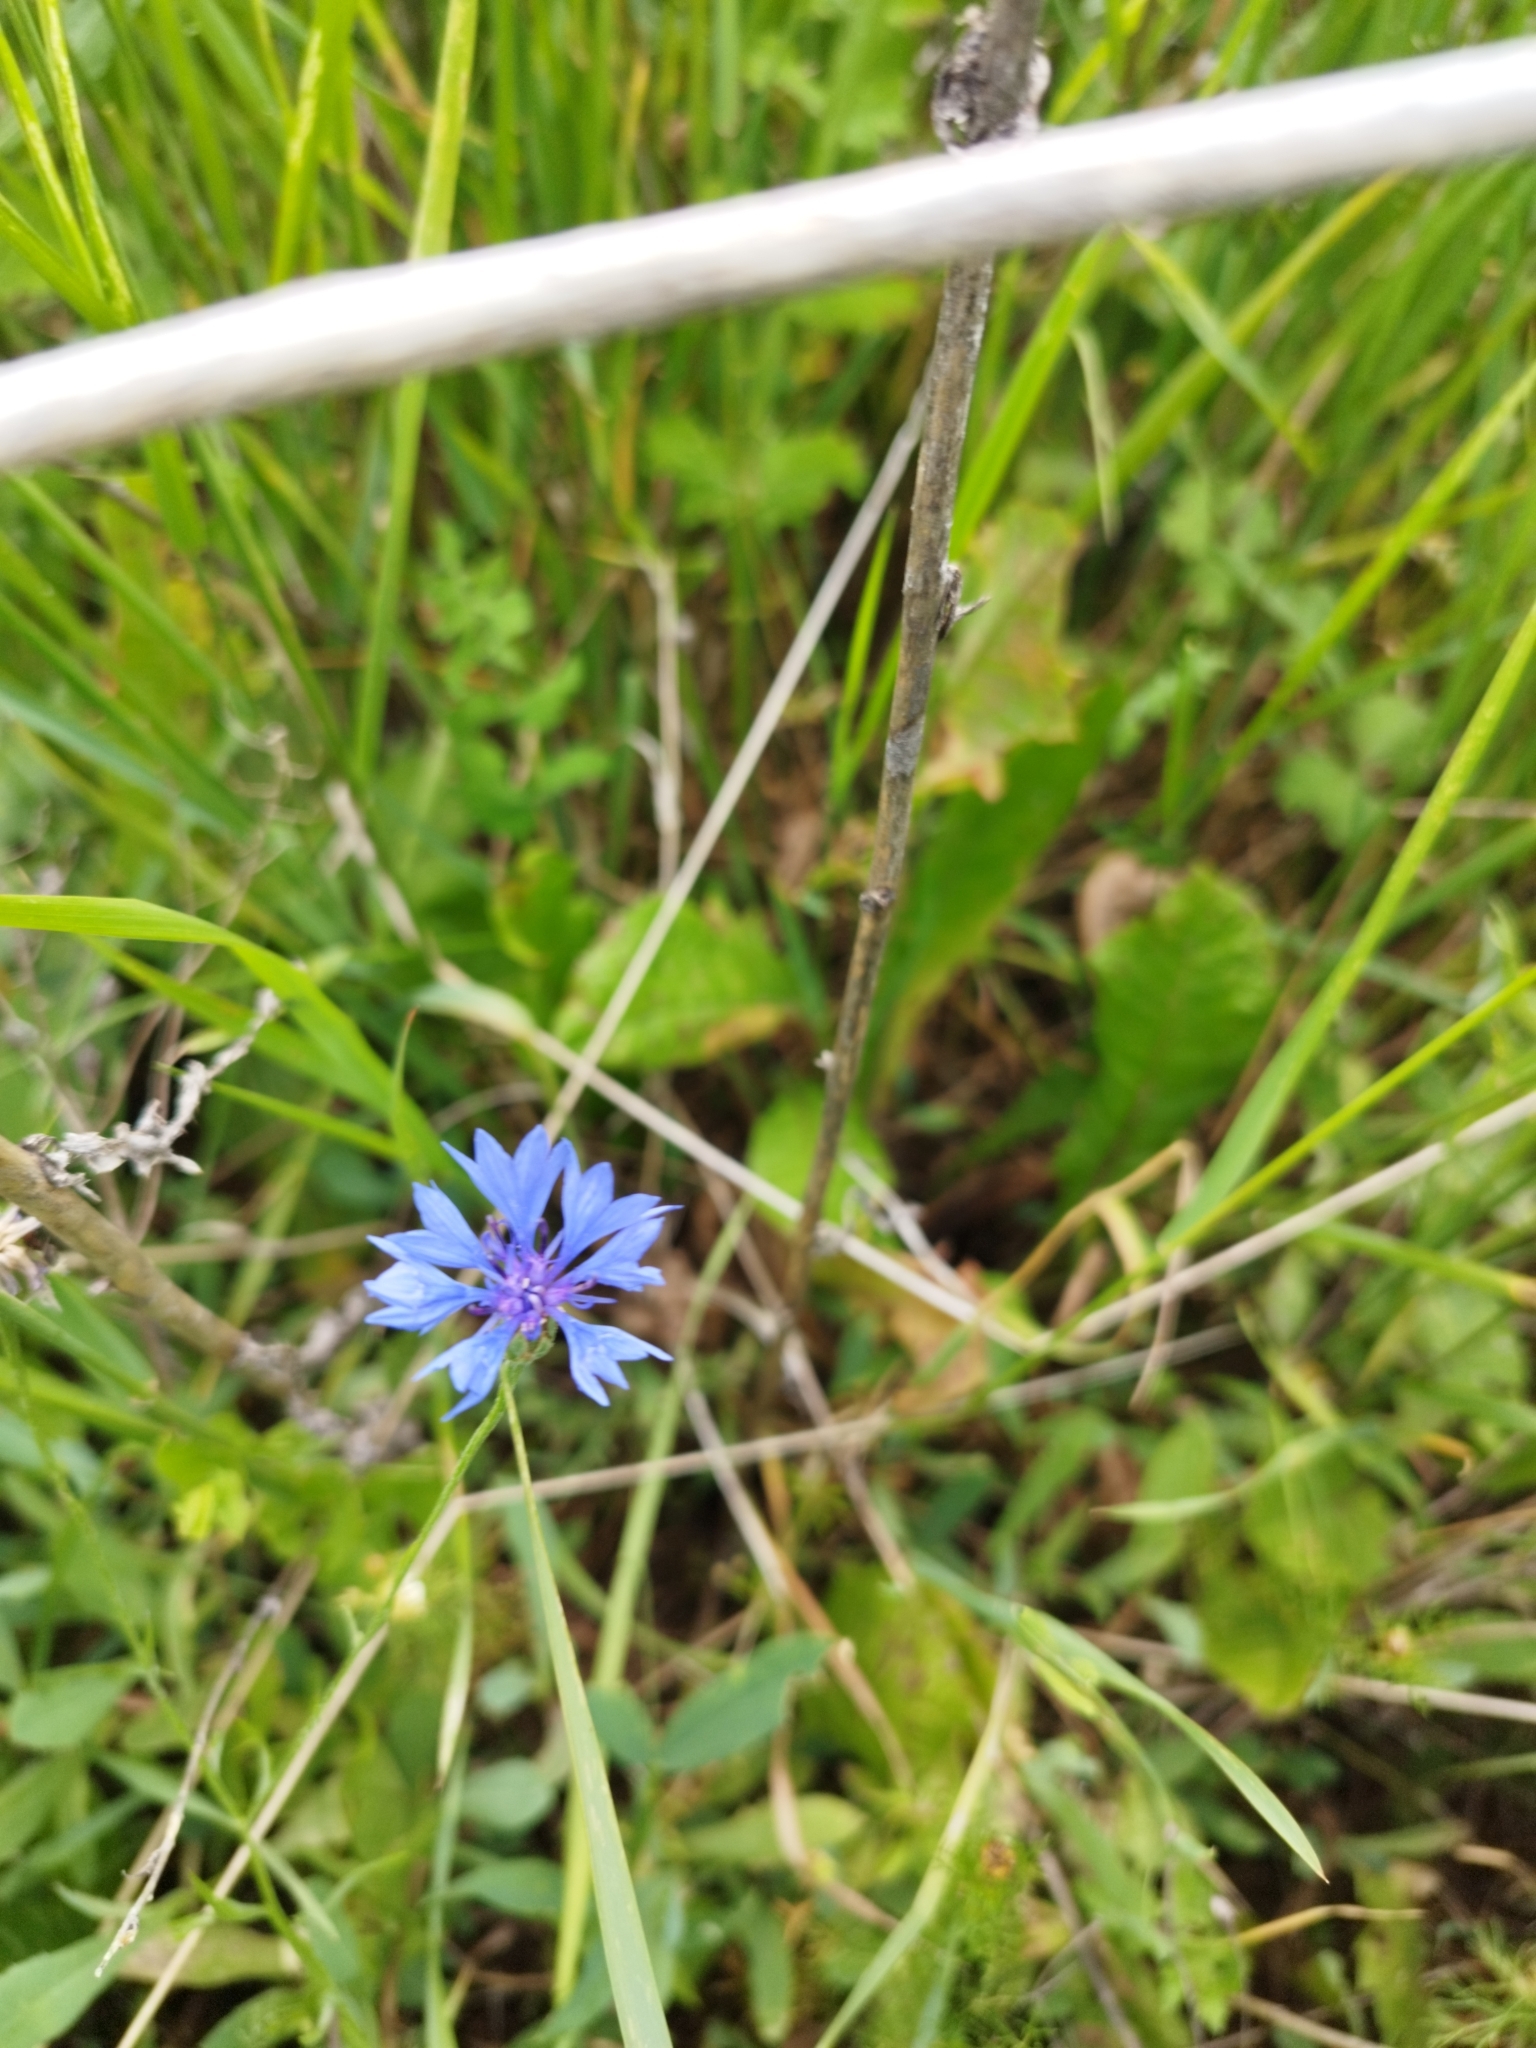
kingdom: Plantae
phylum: Tracheophyta
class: Magnoliopsida
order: Asterales
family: Asteraceae
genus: Centaurea
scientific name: Centaurea cyanus
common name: Cornflower
